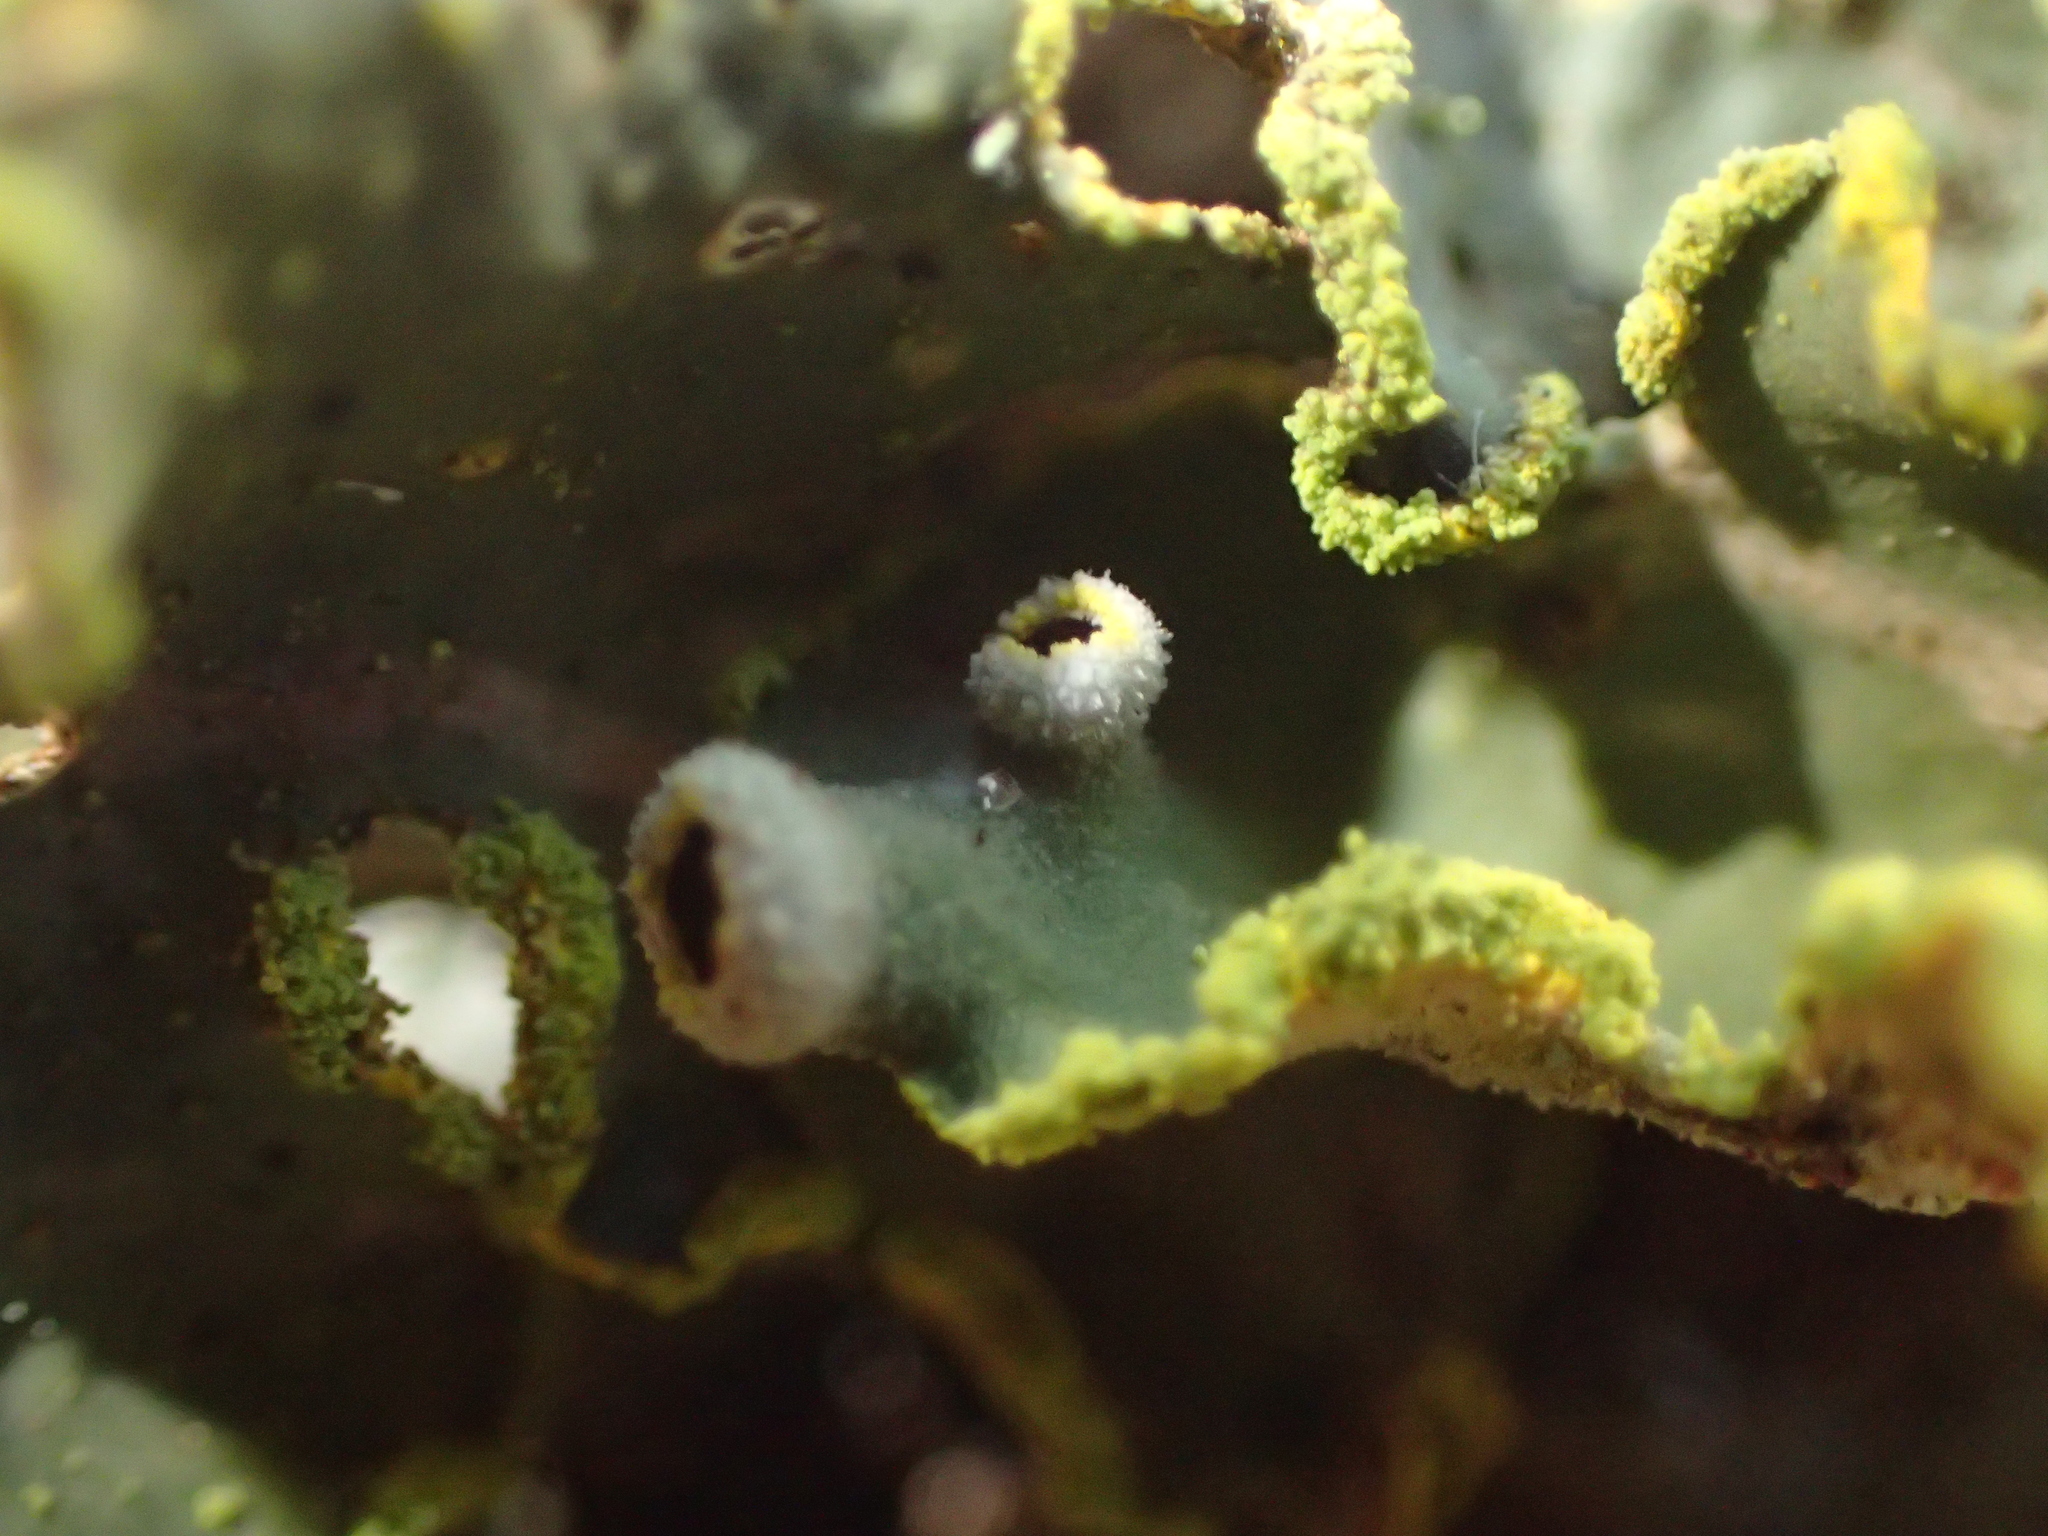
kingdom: Fungi
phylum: Ascomycota
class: Lecanoromycetes
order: Peltigerales
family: Lobariaceae
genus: Pseudocyphellaria
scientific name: Pseudocyphellaria aurata
